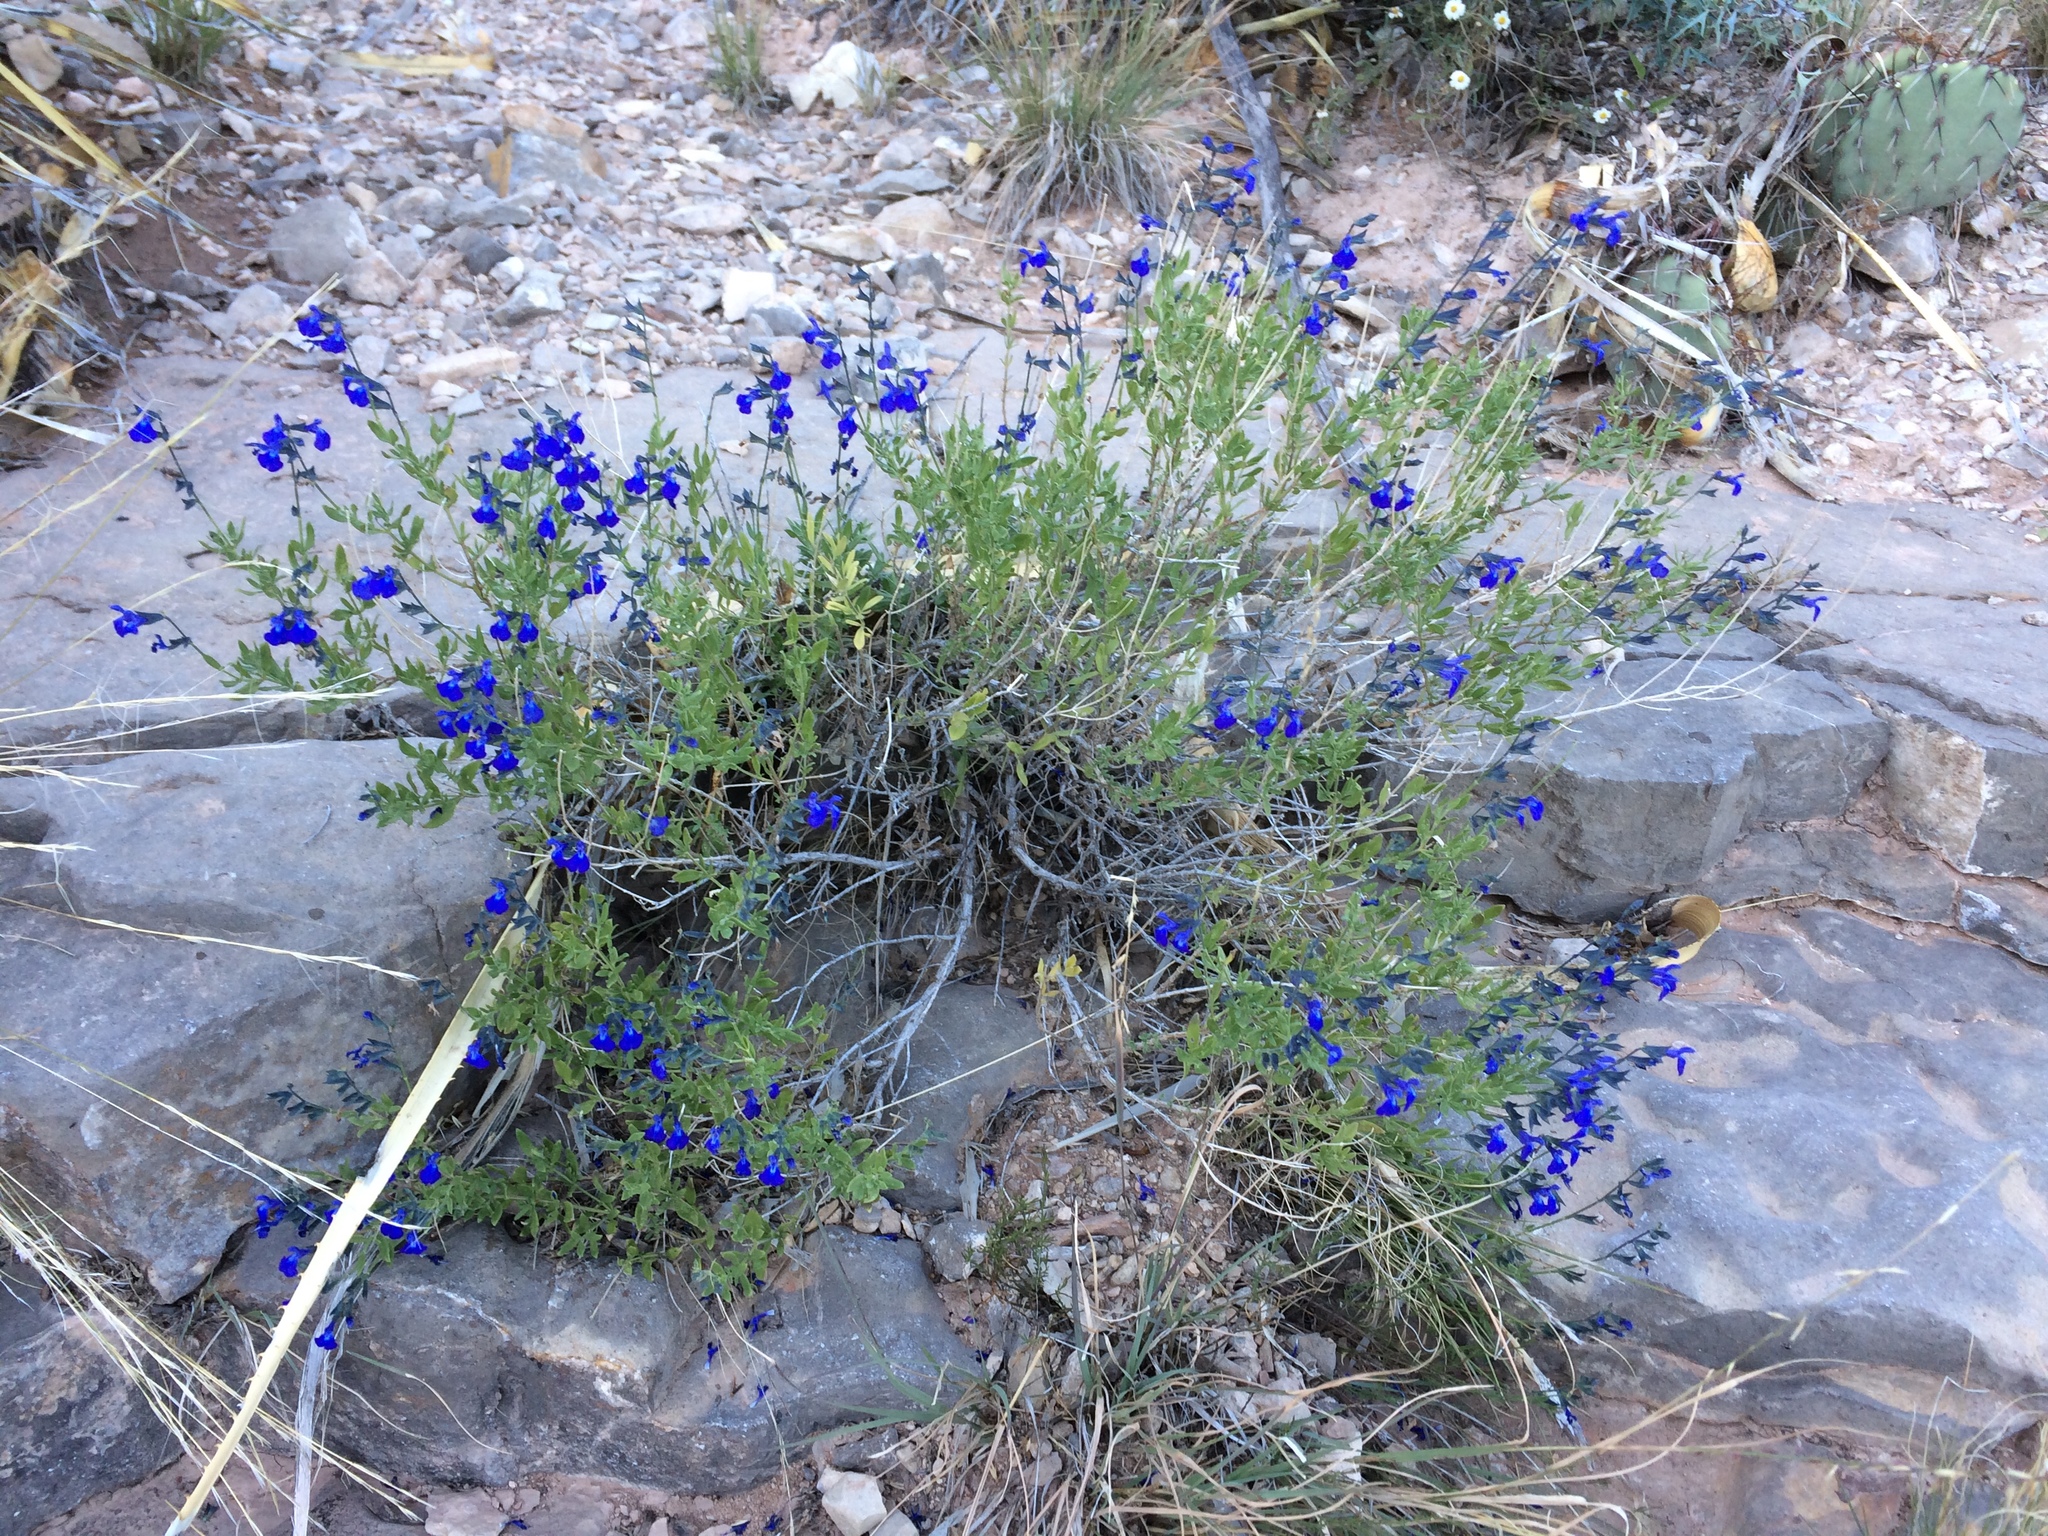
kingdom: Plantae
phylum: Tracheophyta
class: Magnoliopsida
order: Lamiales
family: Lamiaceae
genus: Salvia
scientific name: Salvia lycioides
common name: Canyon sage
